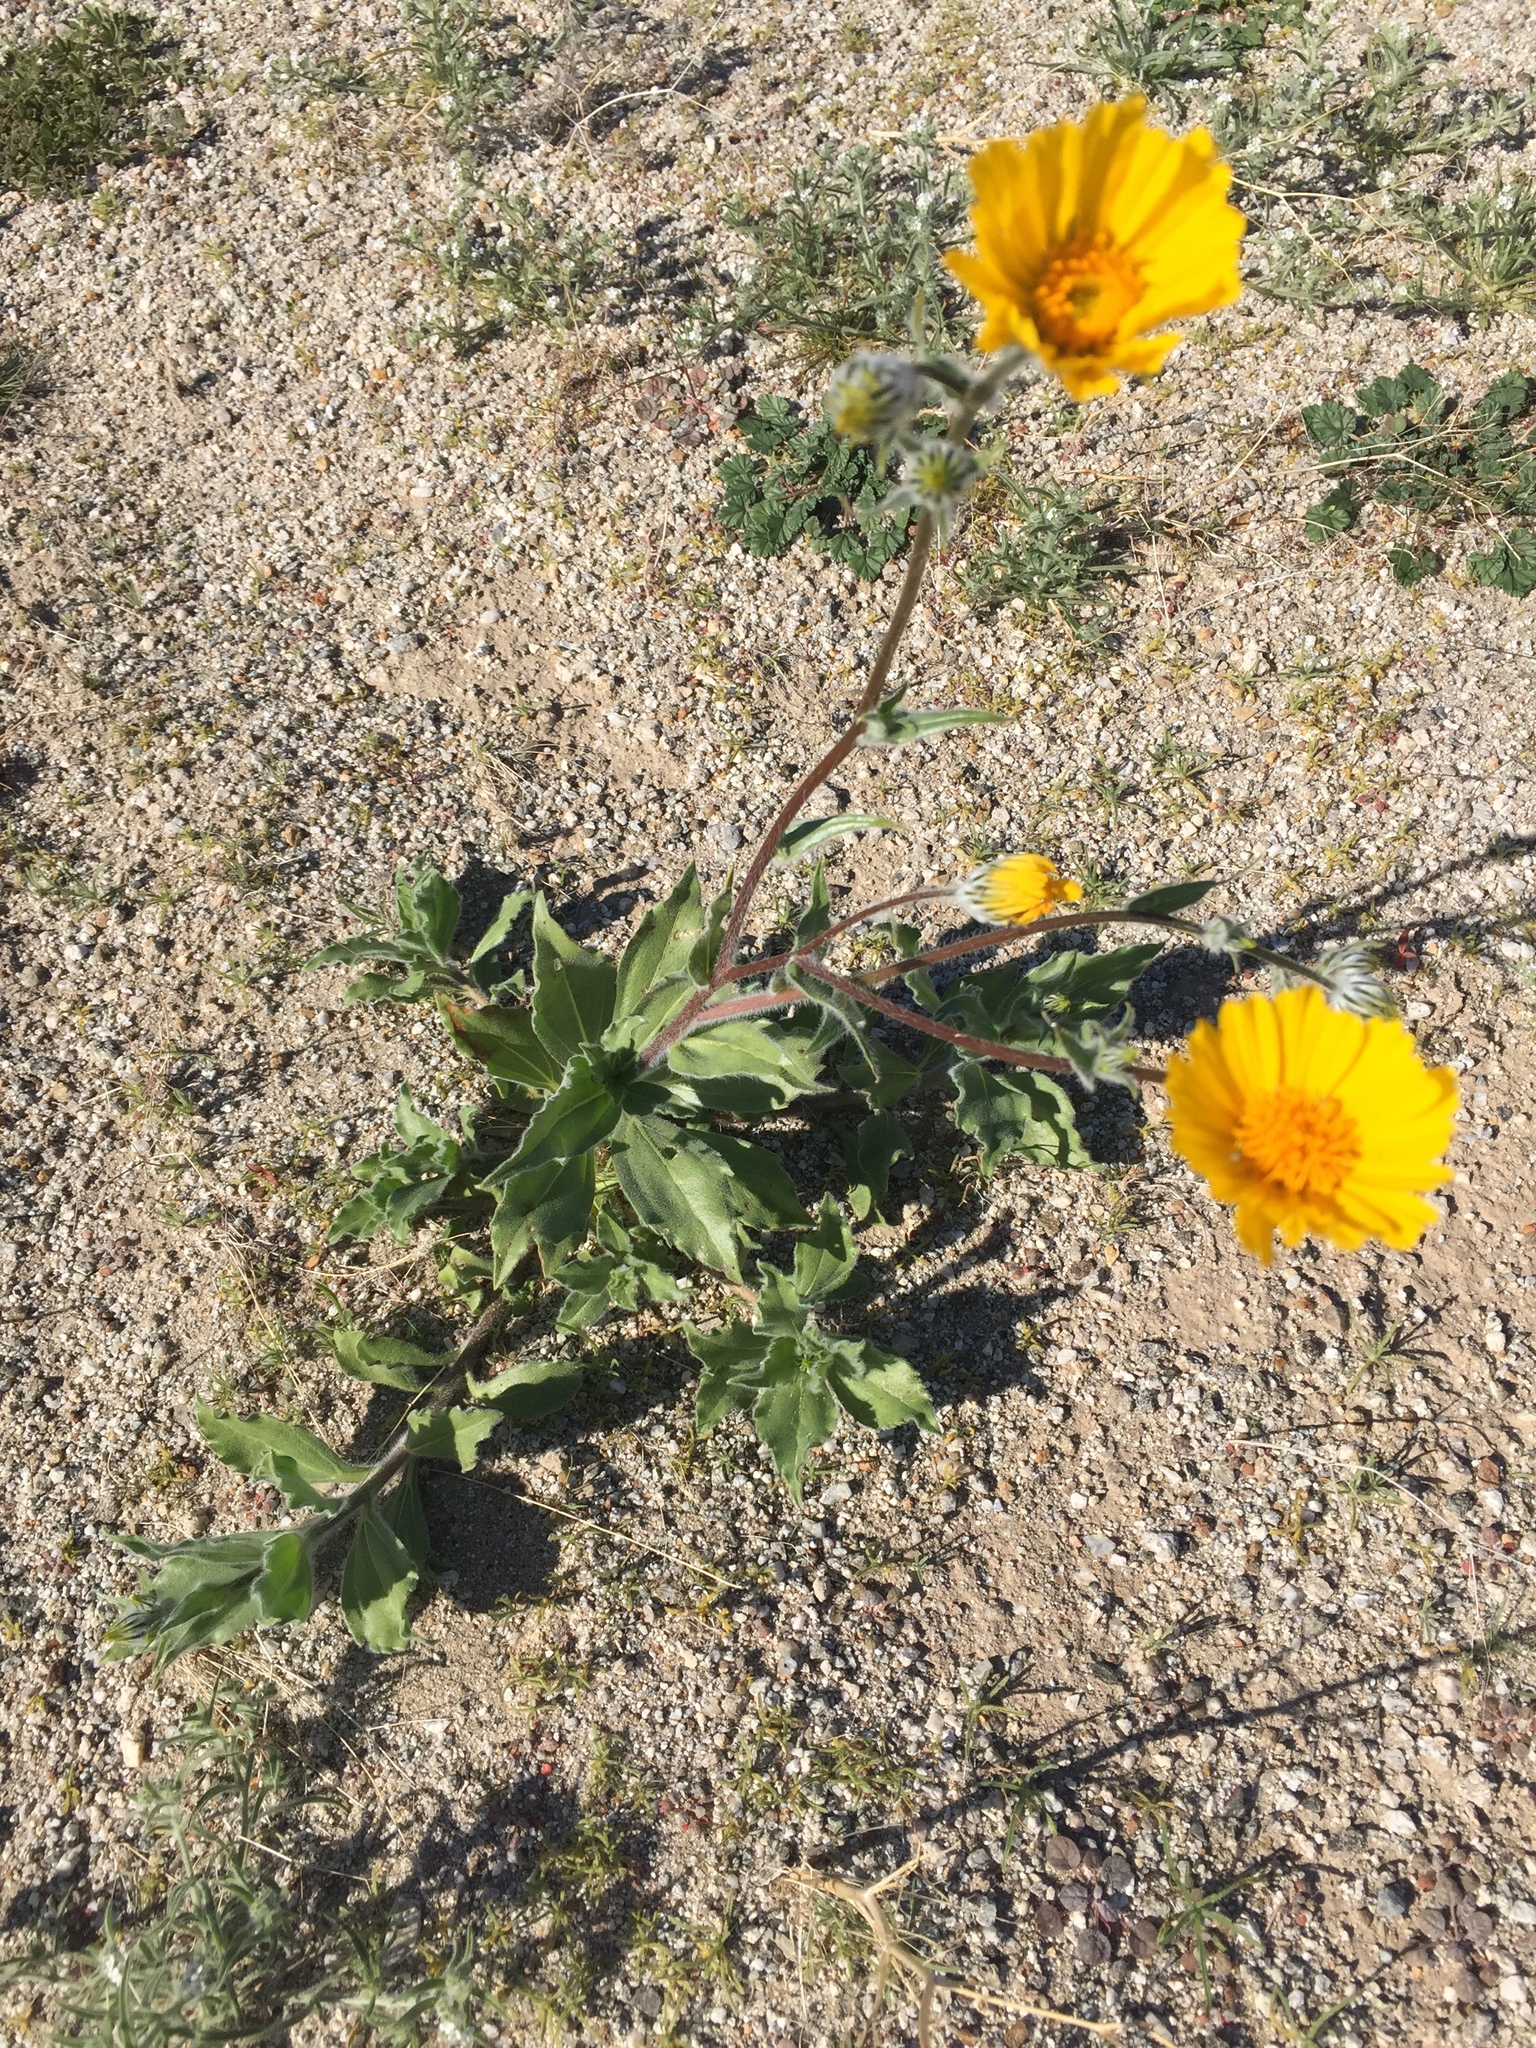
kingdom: Plantae
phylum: Tracheophyta
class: Magnoliopsida
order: Asterales
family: Asteraceae
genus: Geraea
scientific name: Geraea canescens
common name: Desert-gold
